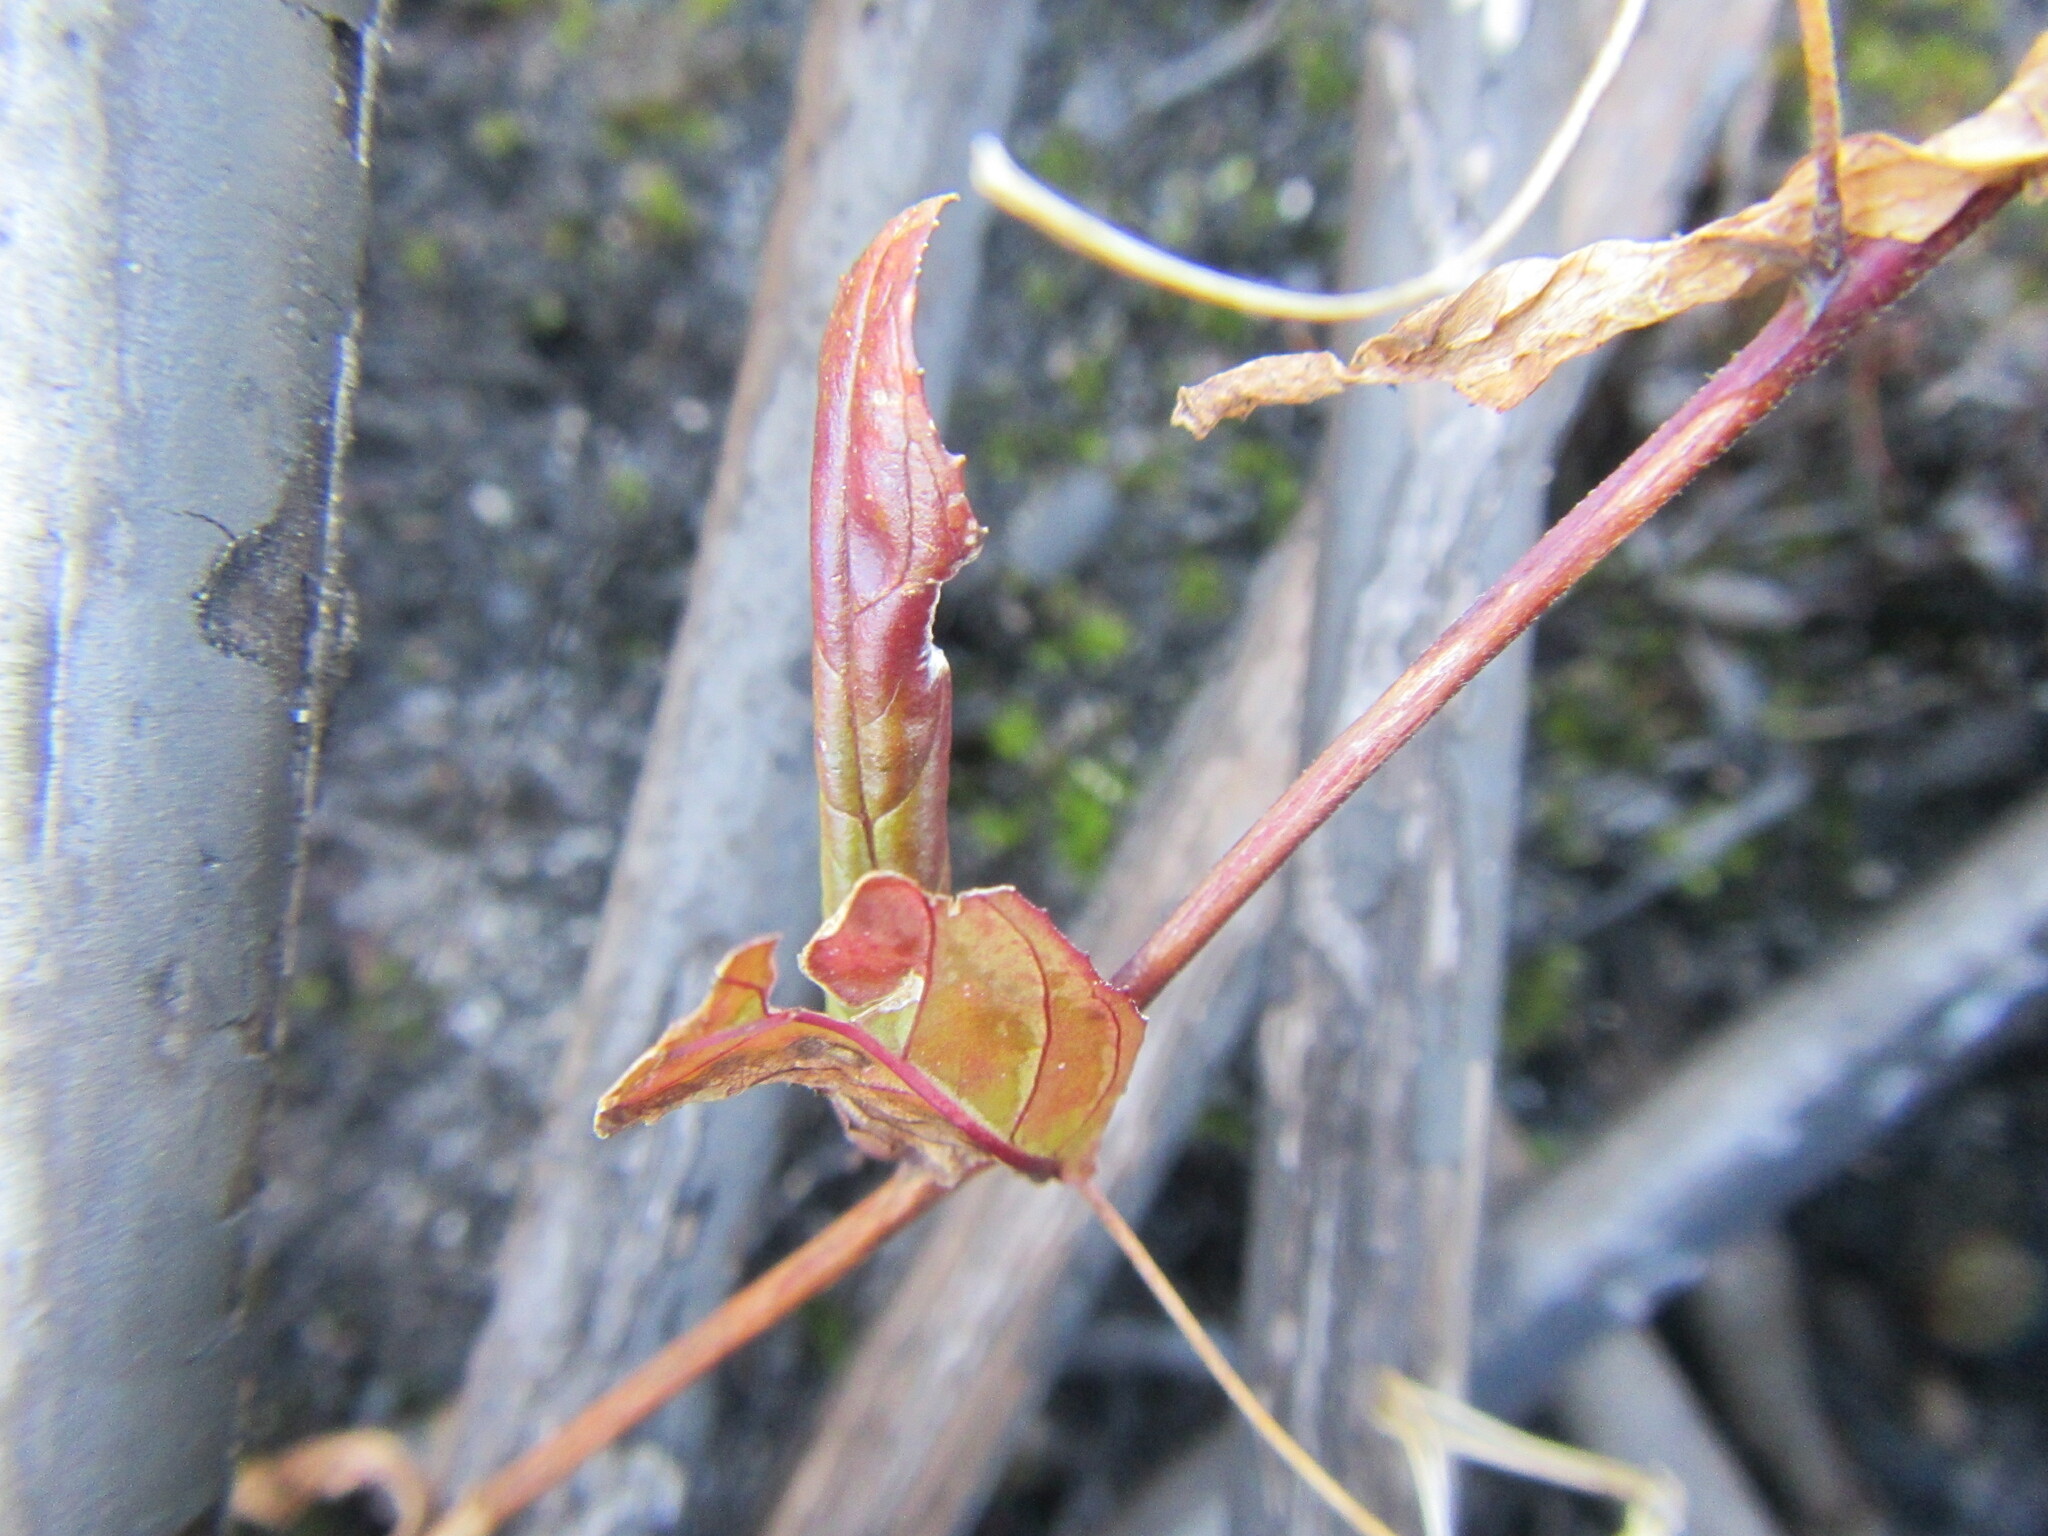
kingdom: Plantae
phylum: Tracheophyta
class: Magnoliopsida
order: Myrtales
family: Onagraceae
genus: Epilobium
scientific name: Epilobium tetragonum
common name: Square-stemmed willowherb
